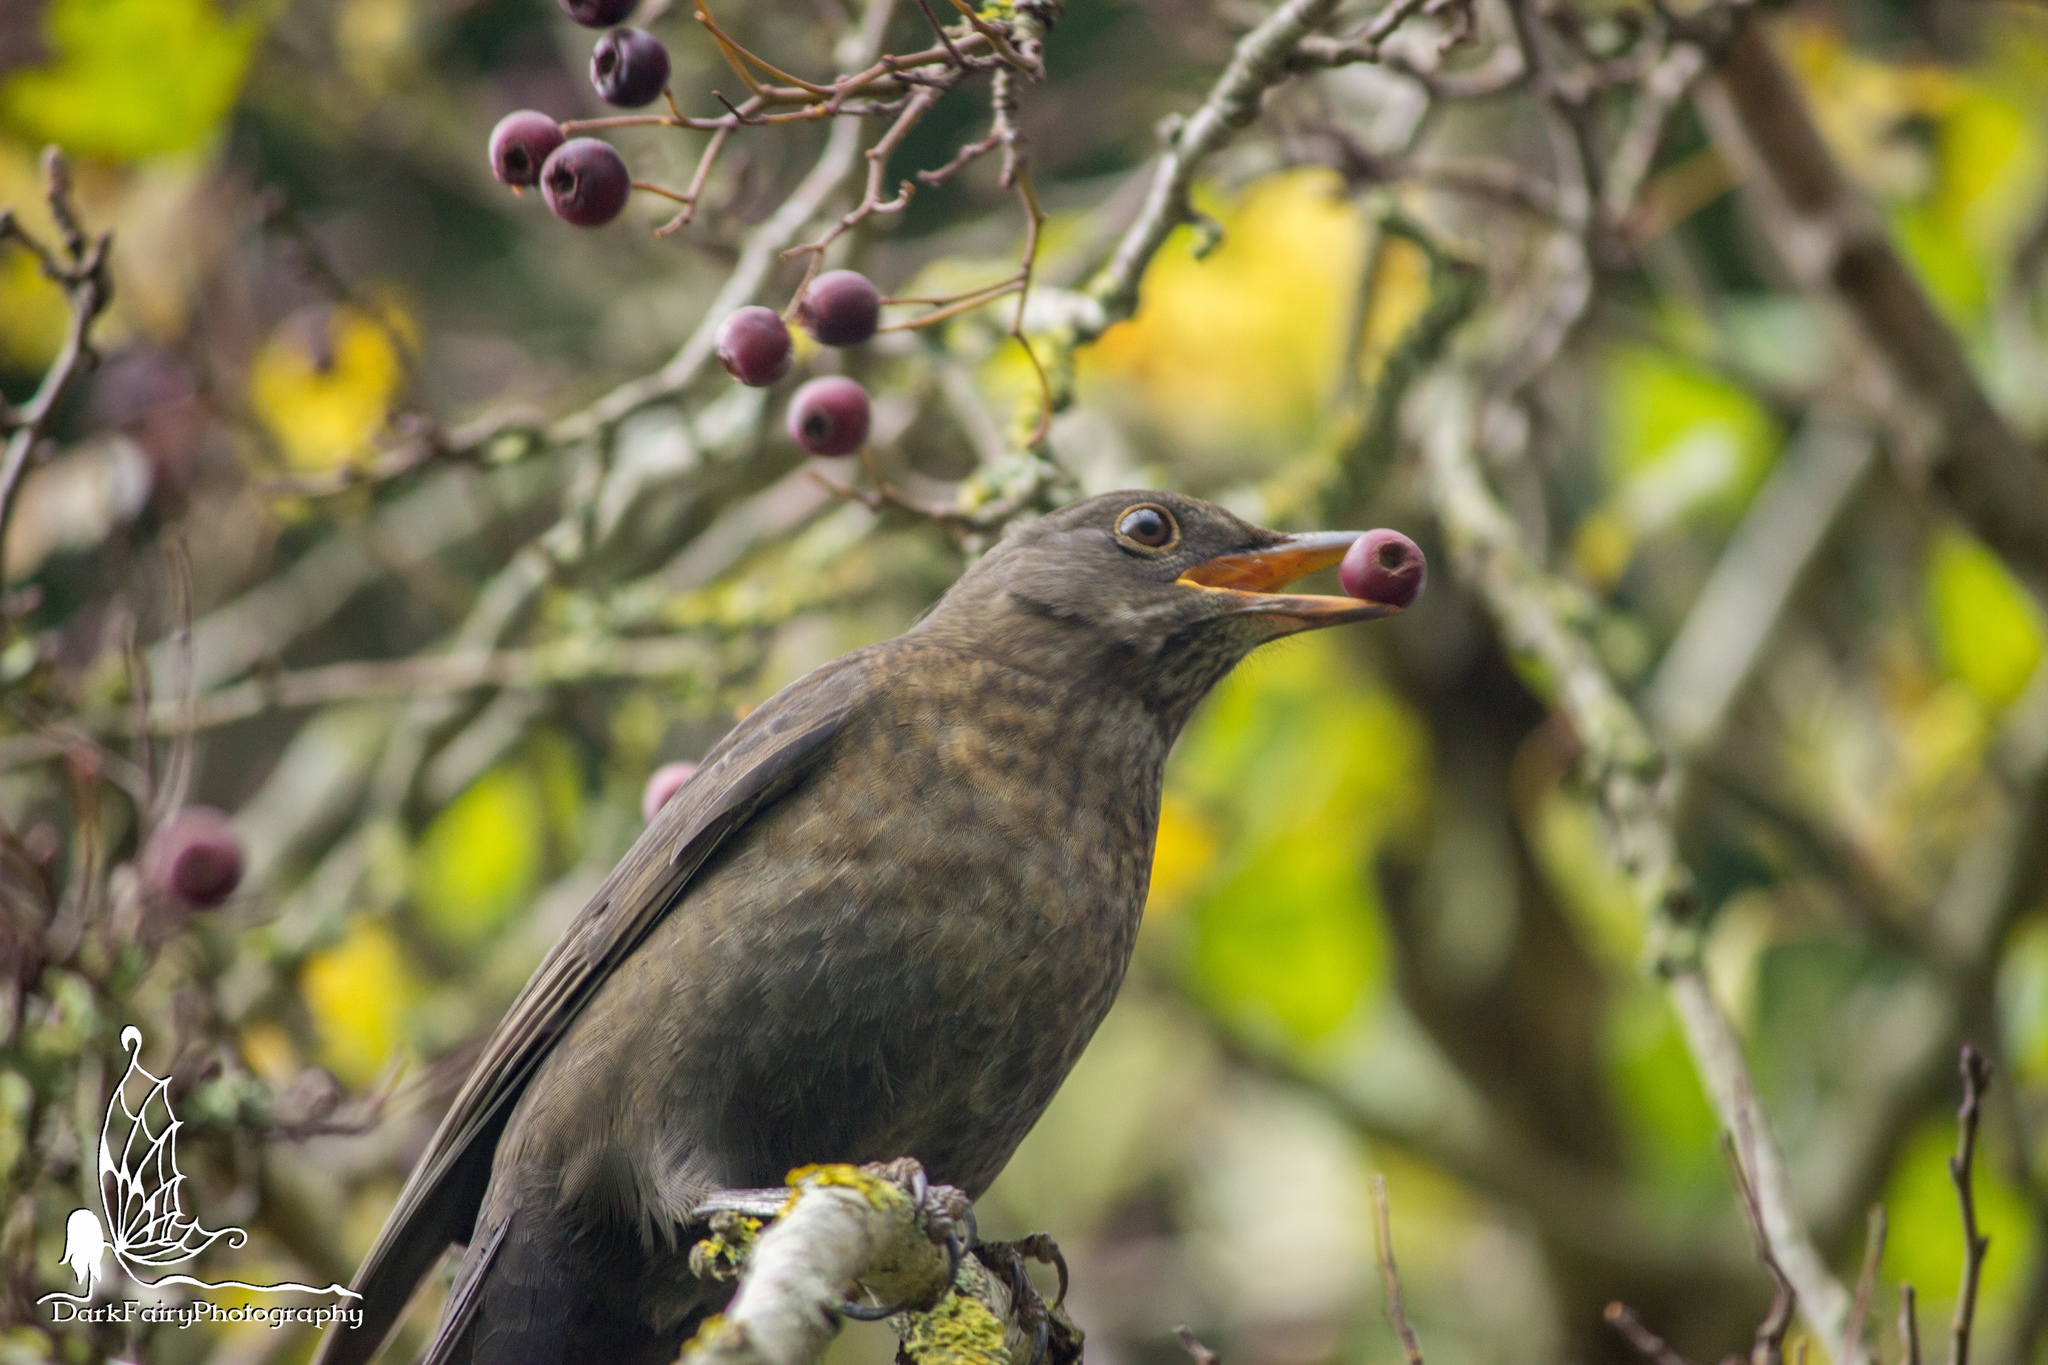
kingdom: Animalia
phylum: Chordata
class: Aves
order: Passeriformes
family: Turdidae
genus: Turdus
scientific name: Turdus merula
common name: Common blackbird
